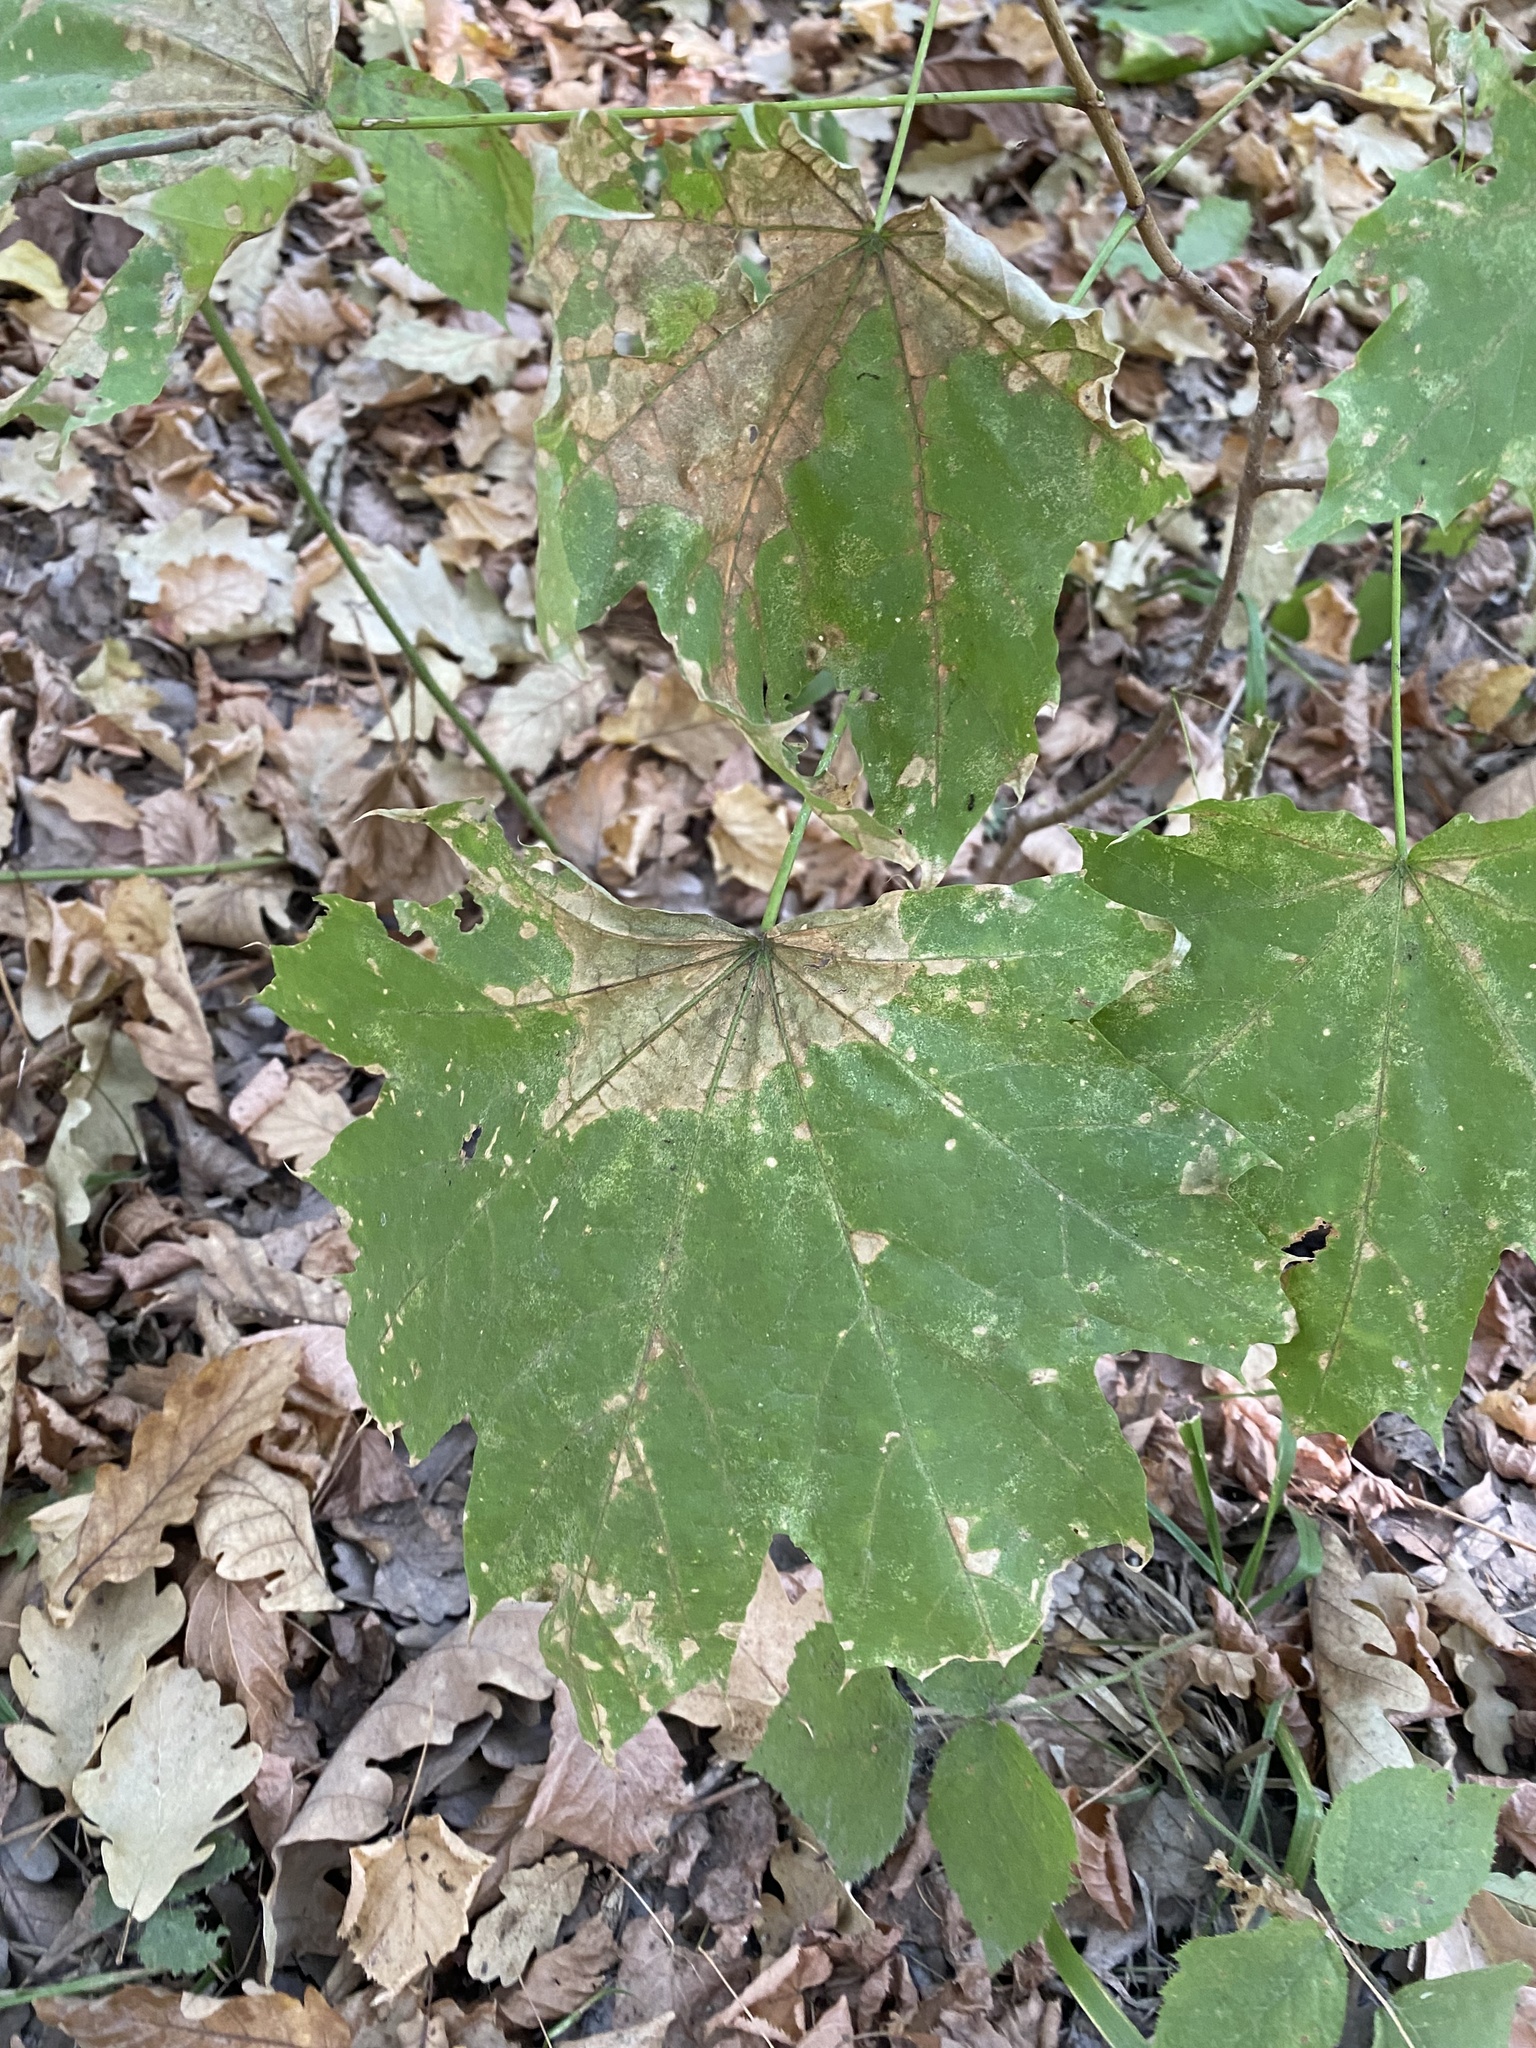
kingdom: Plantae
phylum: Tracheophyta
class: Magnoliopsida
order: Sapindales
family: Sapindaceae
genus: Acer
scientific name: Acer platanoides
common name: Norway maple
